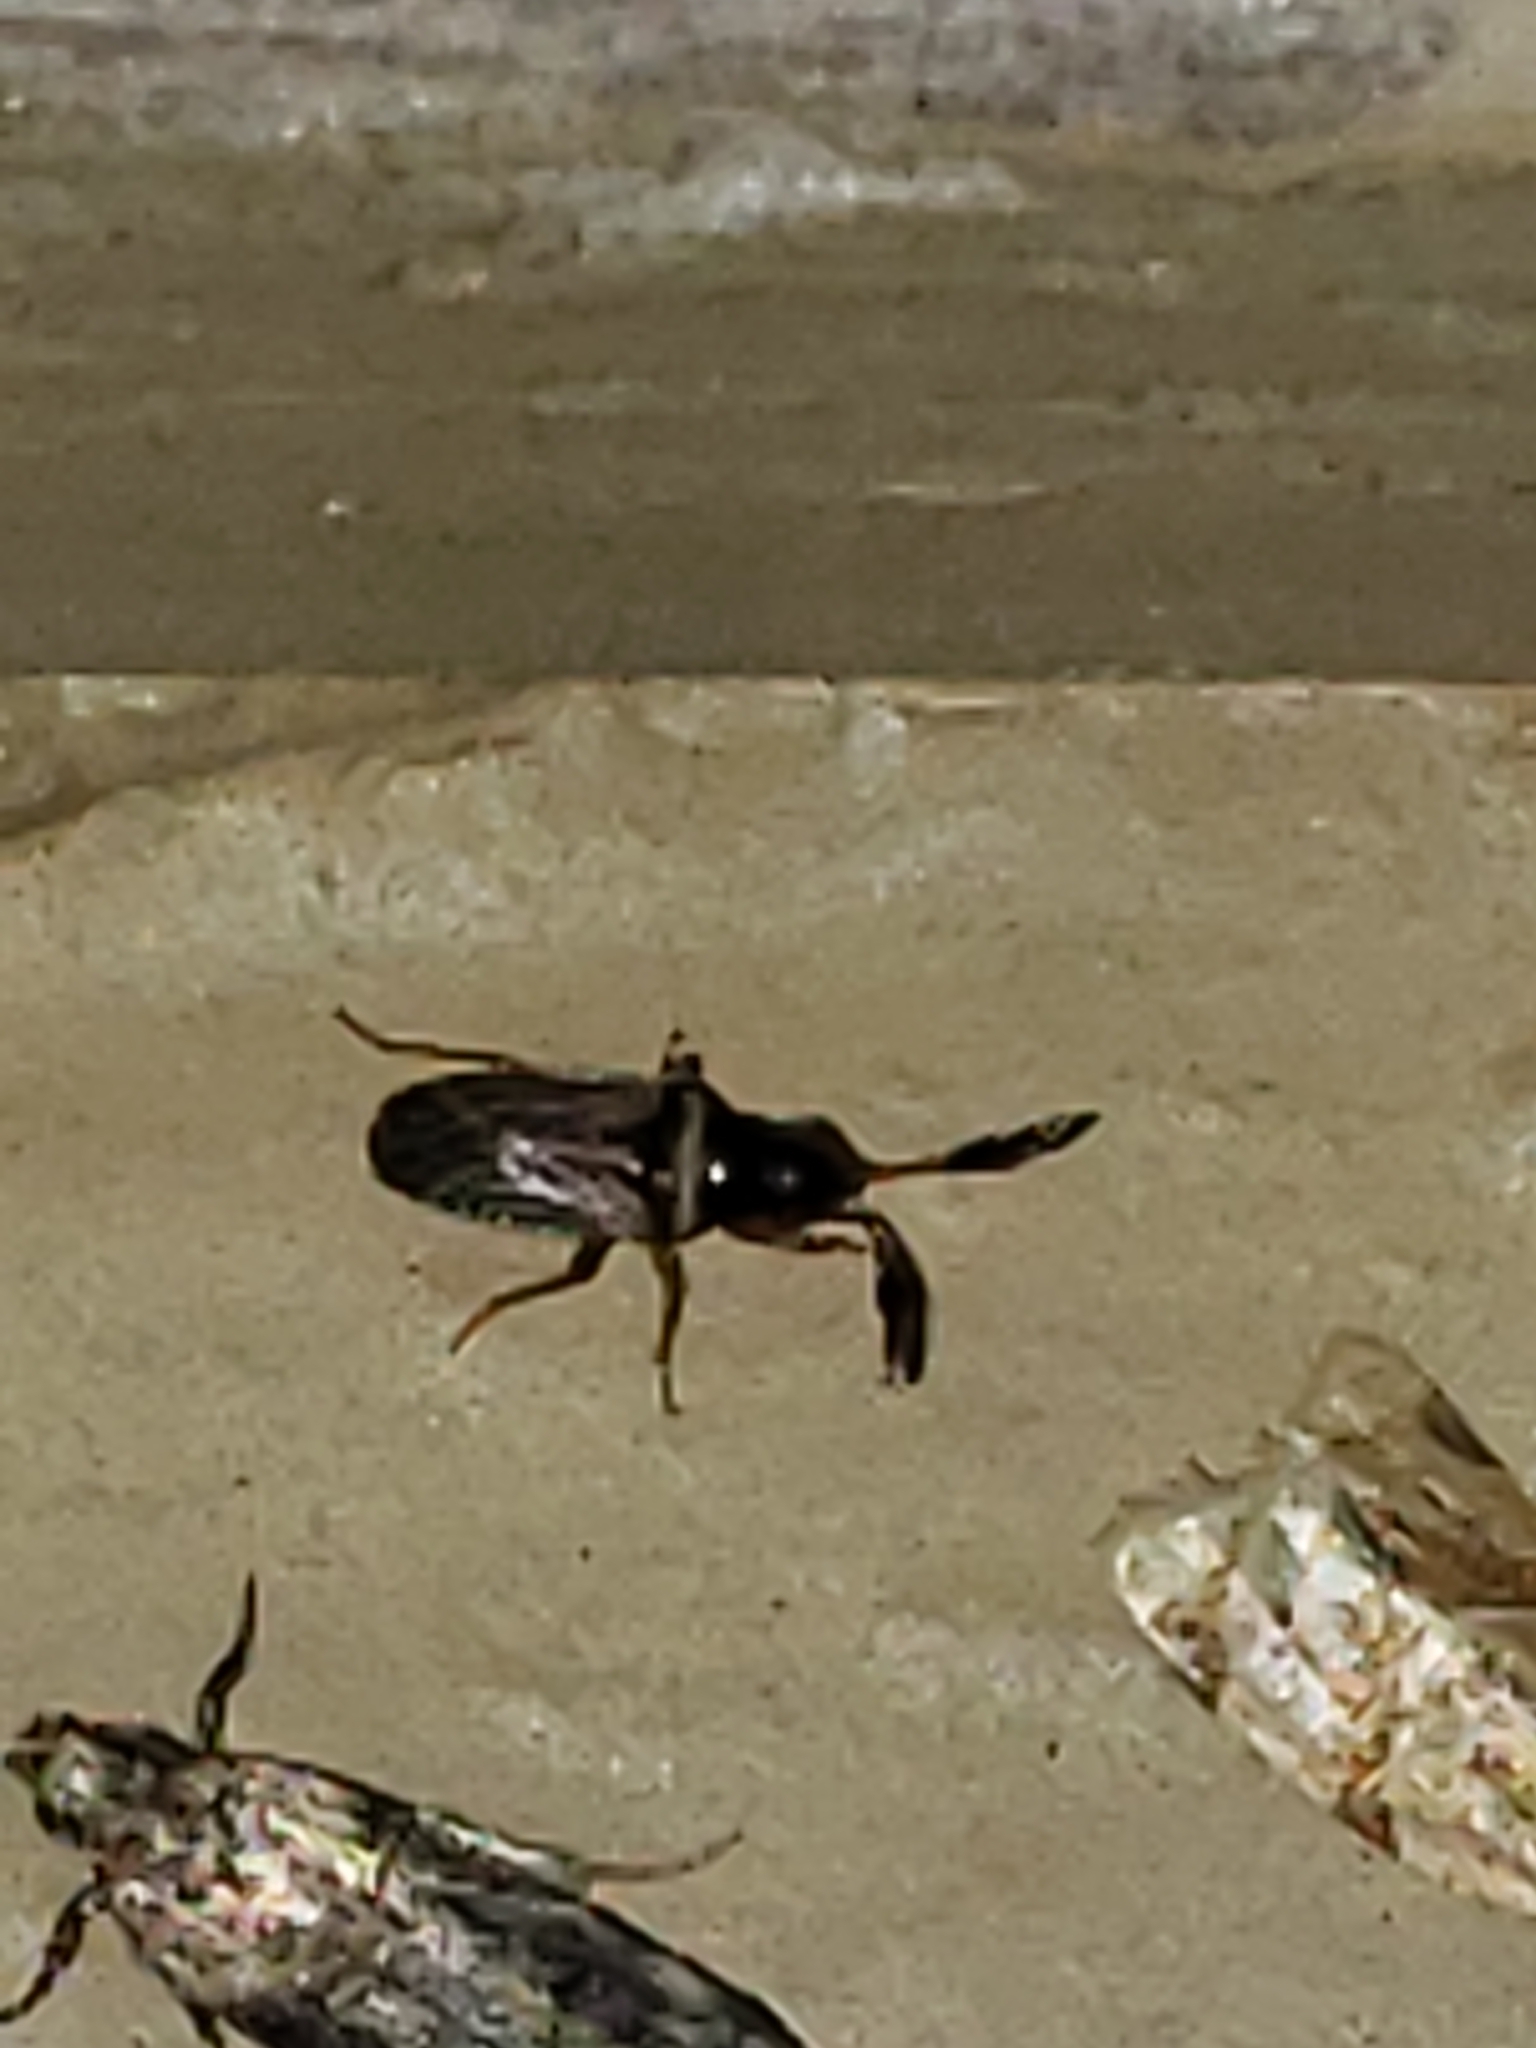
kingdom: Animalia
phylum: Arthropoda
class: Insecta
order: Hemiptera
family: Rhyparochromidae
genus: Ptochiomera
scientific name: Ptochiomera nodosa
